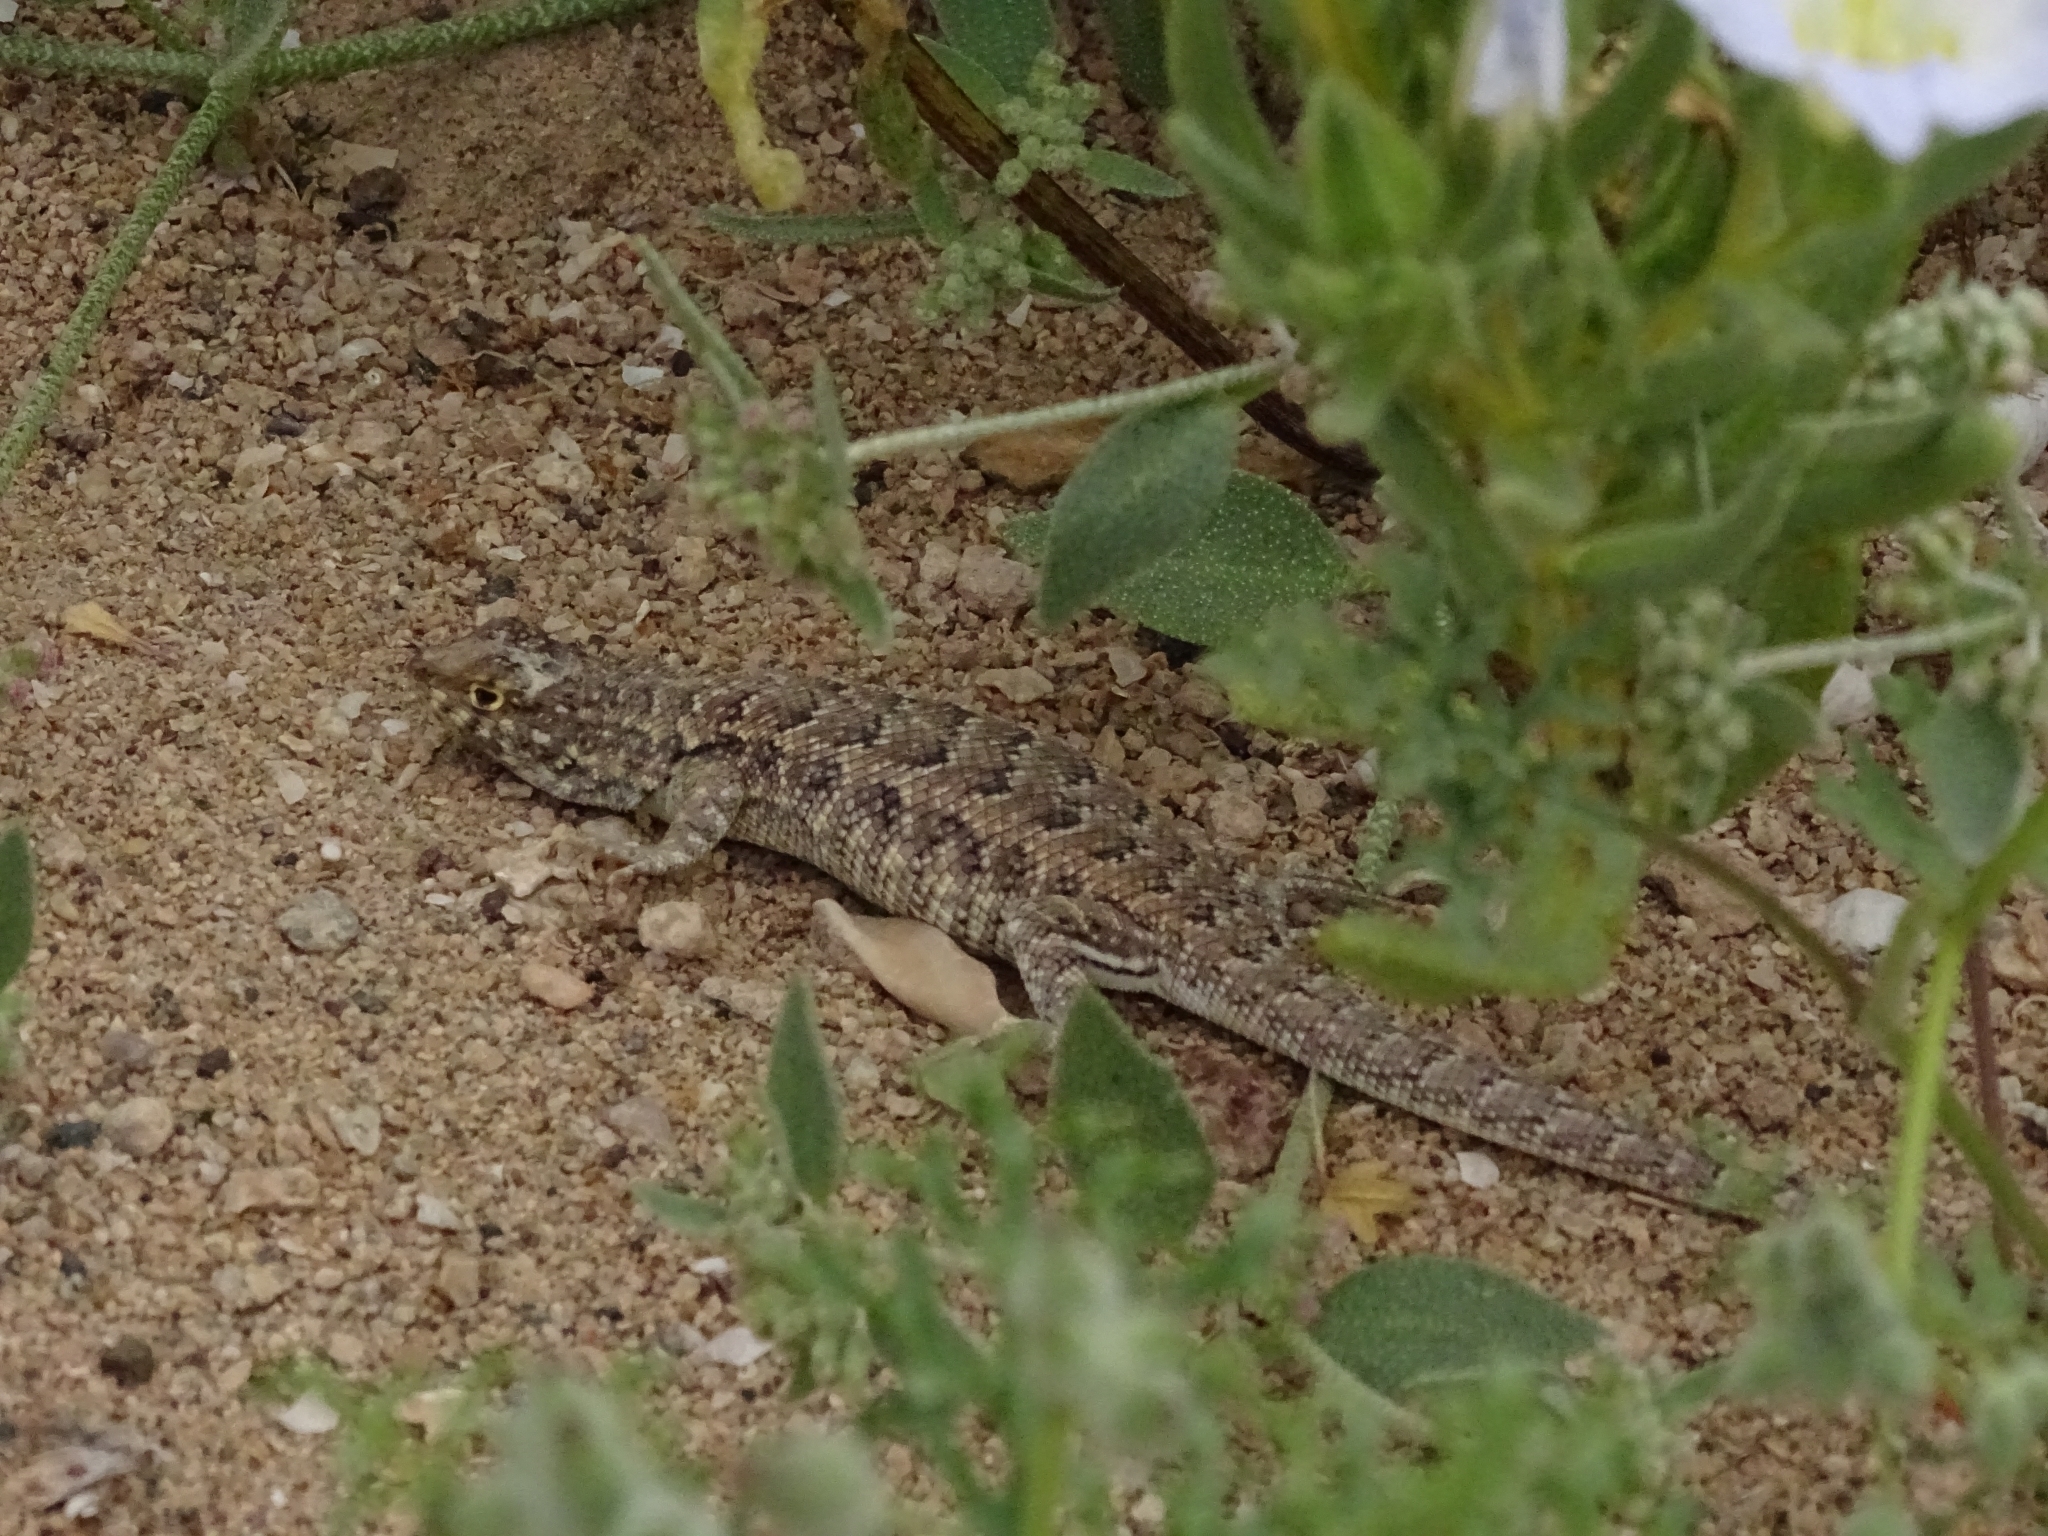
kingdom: Animalia
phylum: Chordata
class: Squamata
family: Liolaemidae
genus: Liolaemus
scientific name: Liolaemus velosoi
